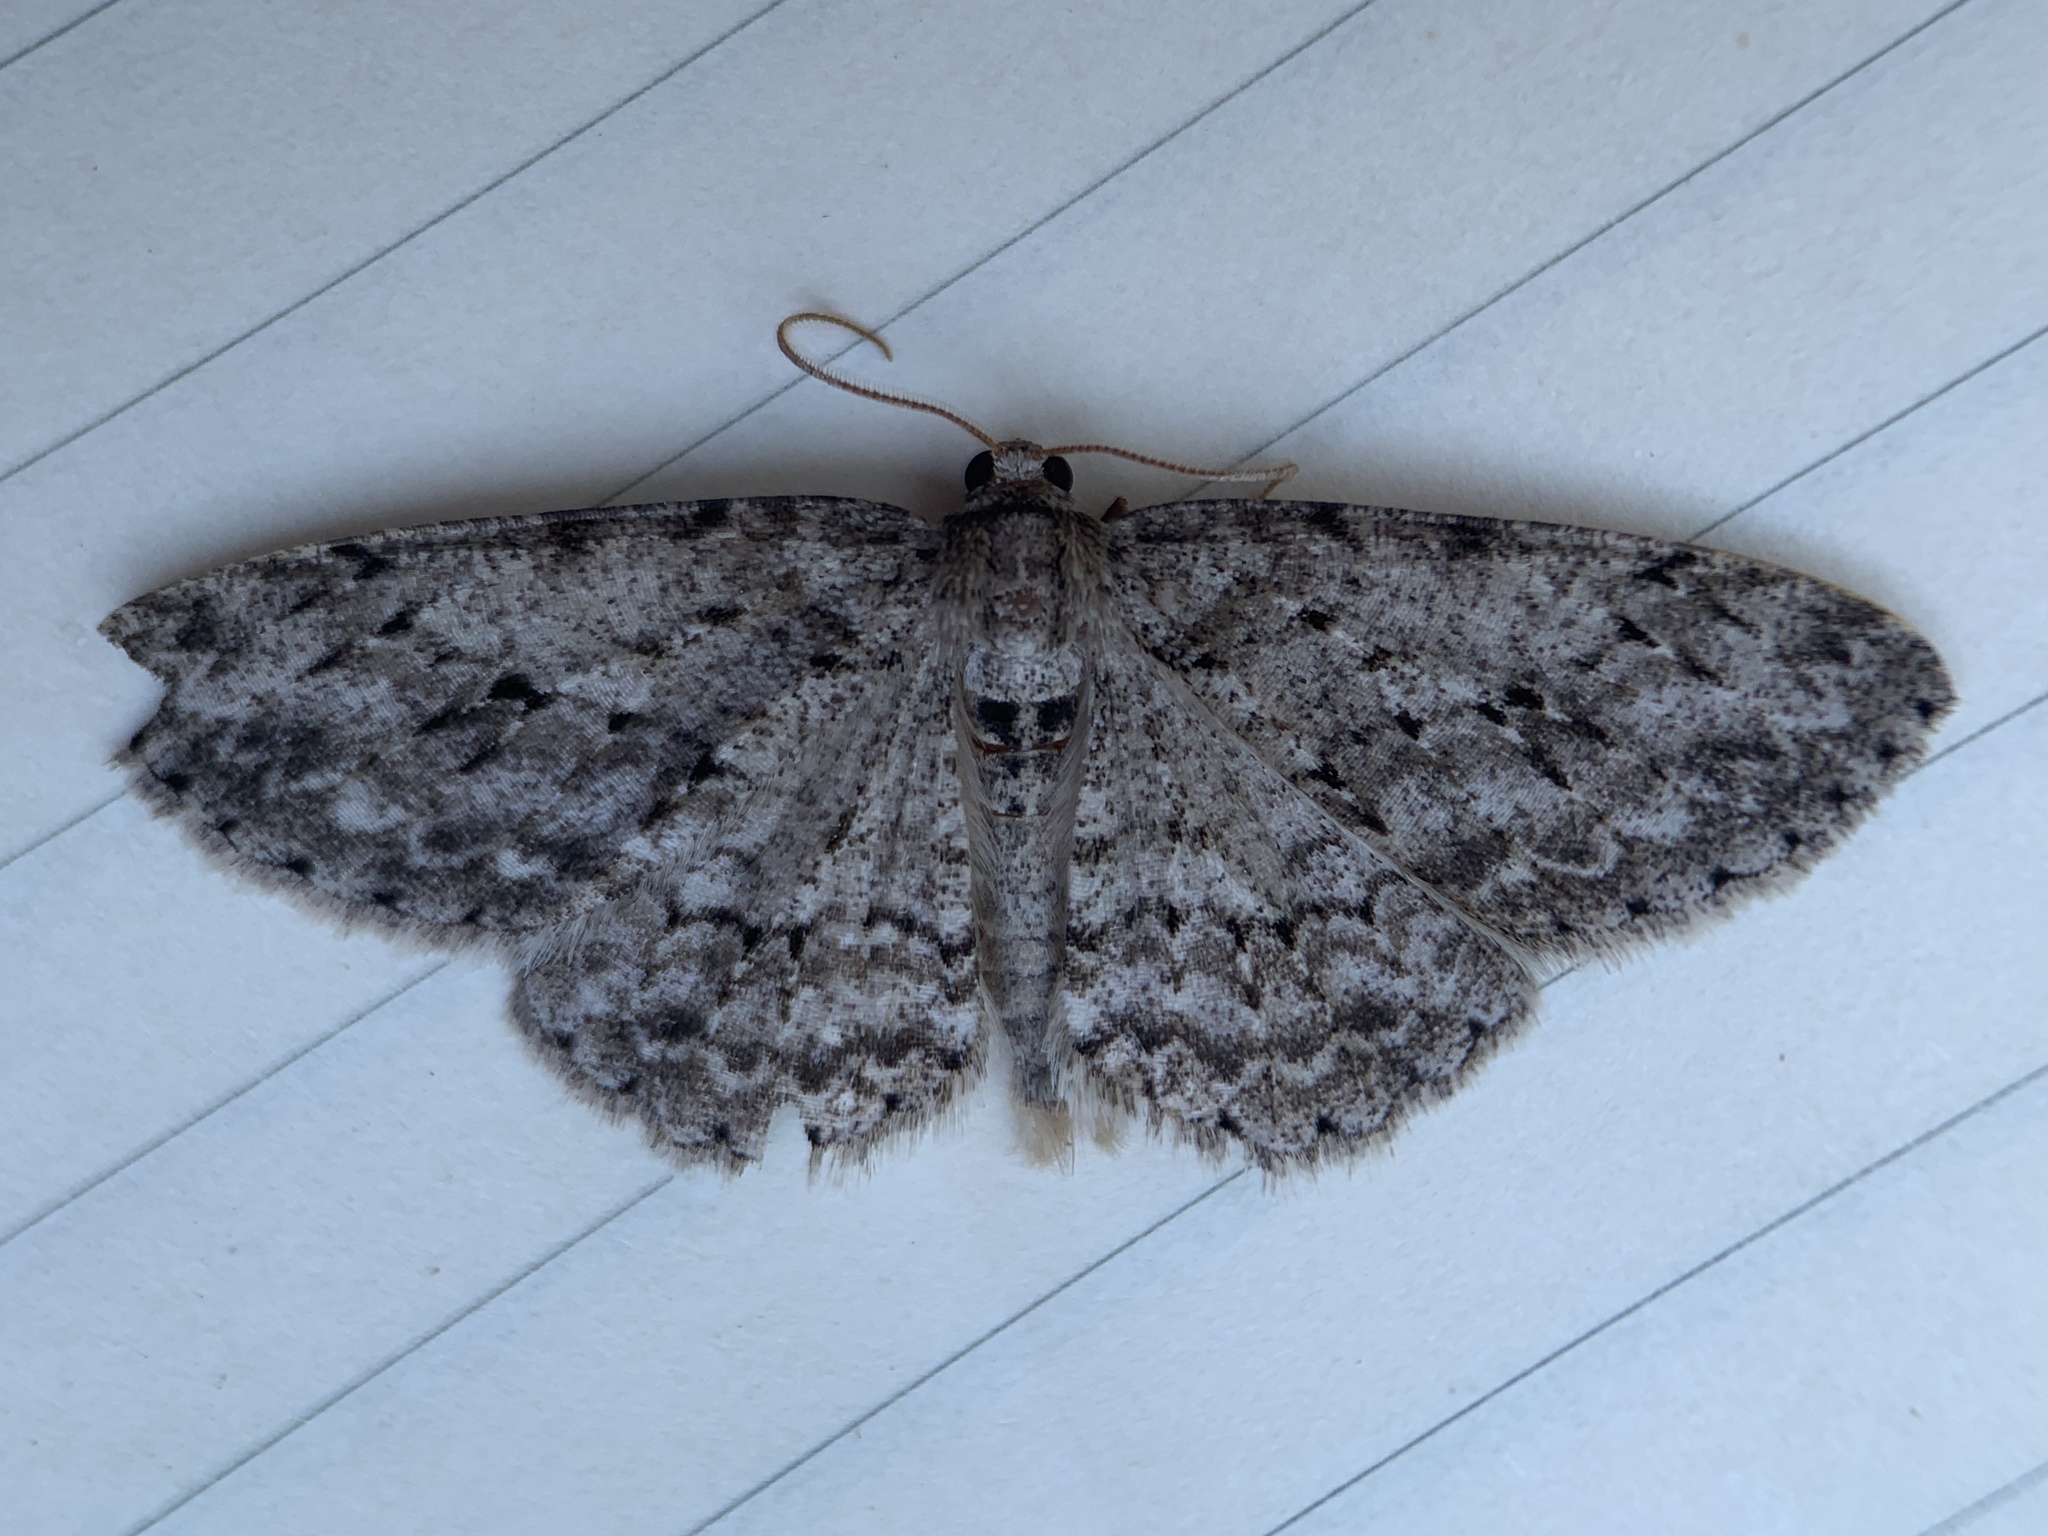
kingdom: Animalia
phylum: Arthropoda
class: Insecta
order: Lepidoptera
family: Geometridae
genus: Ectropis
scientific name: Ectropis crepuscularia
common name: Engrailed
